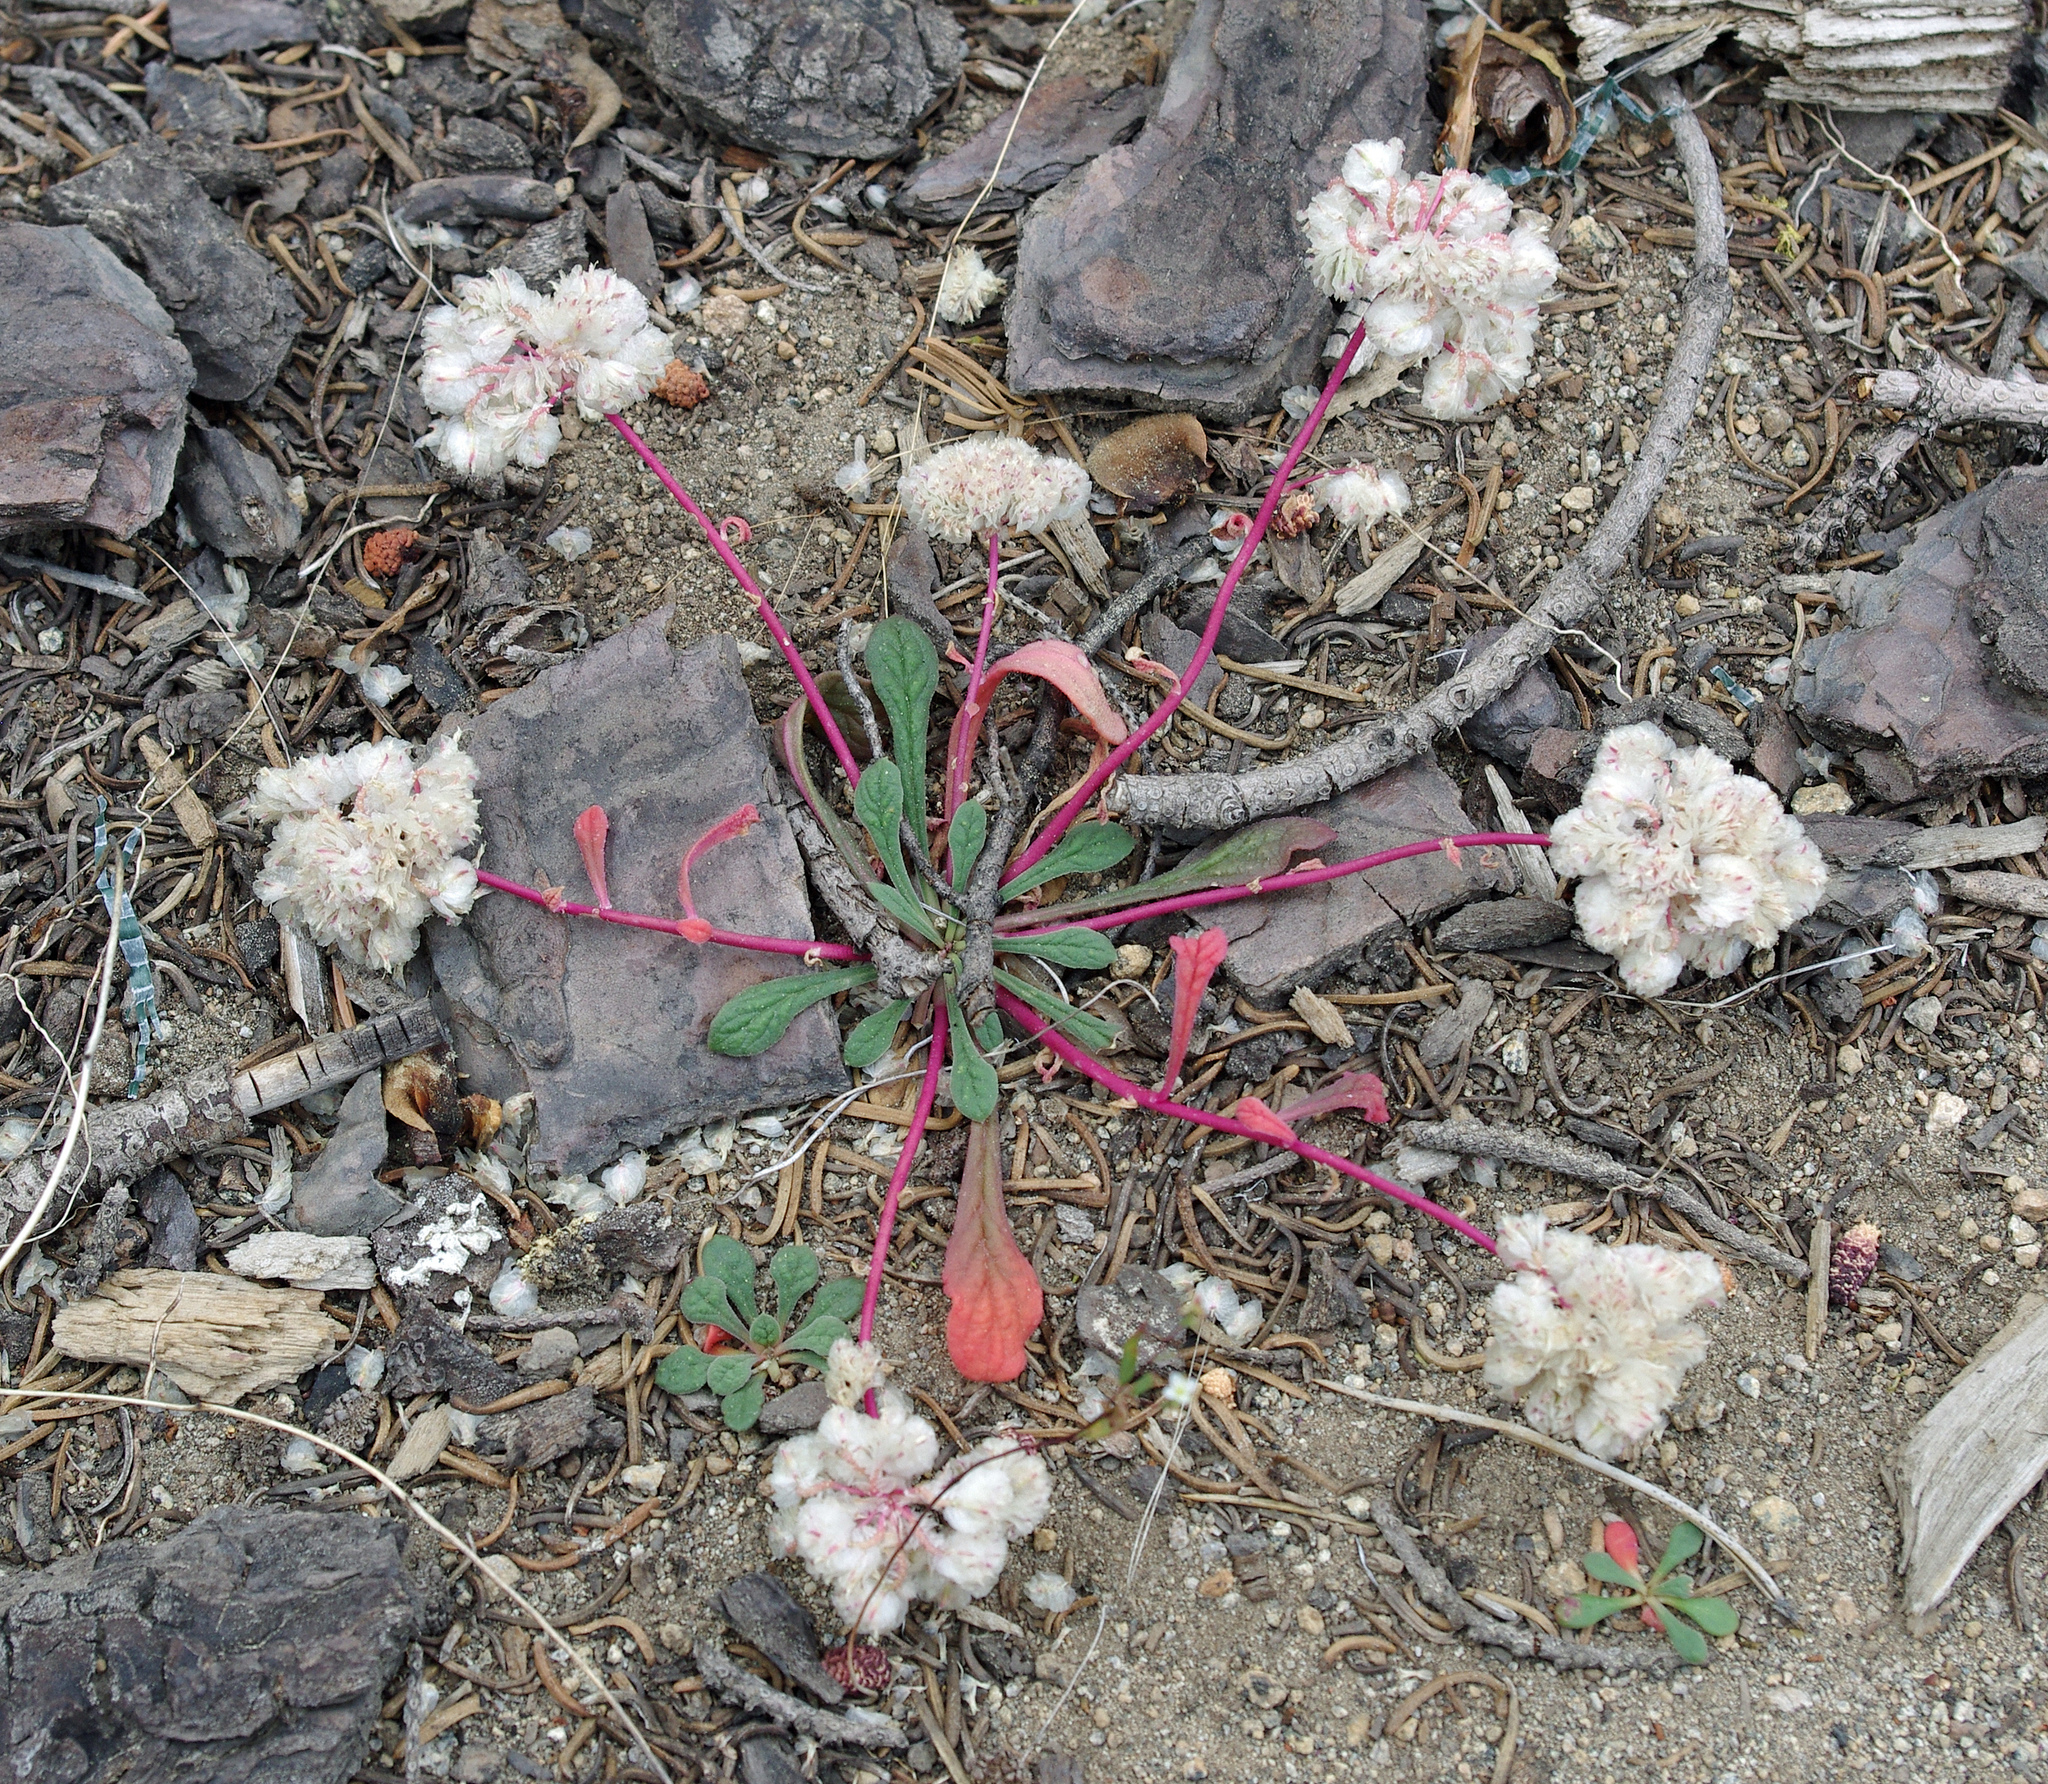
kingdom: Plantae
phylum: Tracheophyta
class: Magnoliopsida
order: Caryophyllales
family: Montiaceae
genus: Calyptridium
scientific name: Calyptridium monospermum
